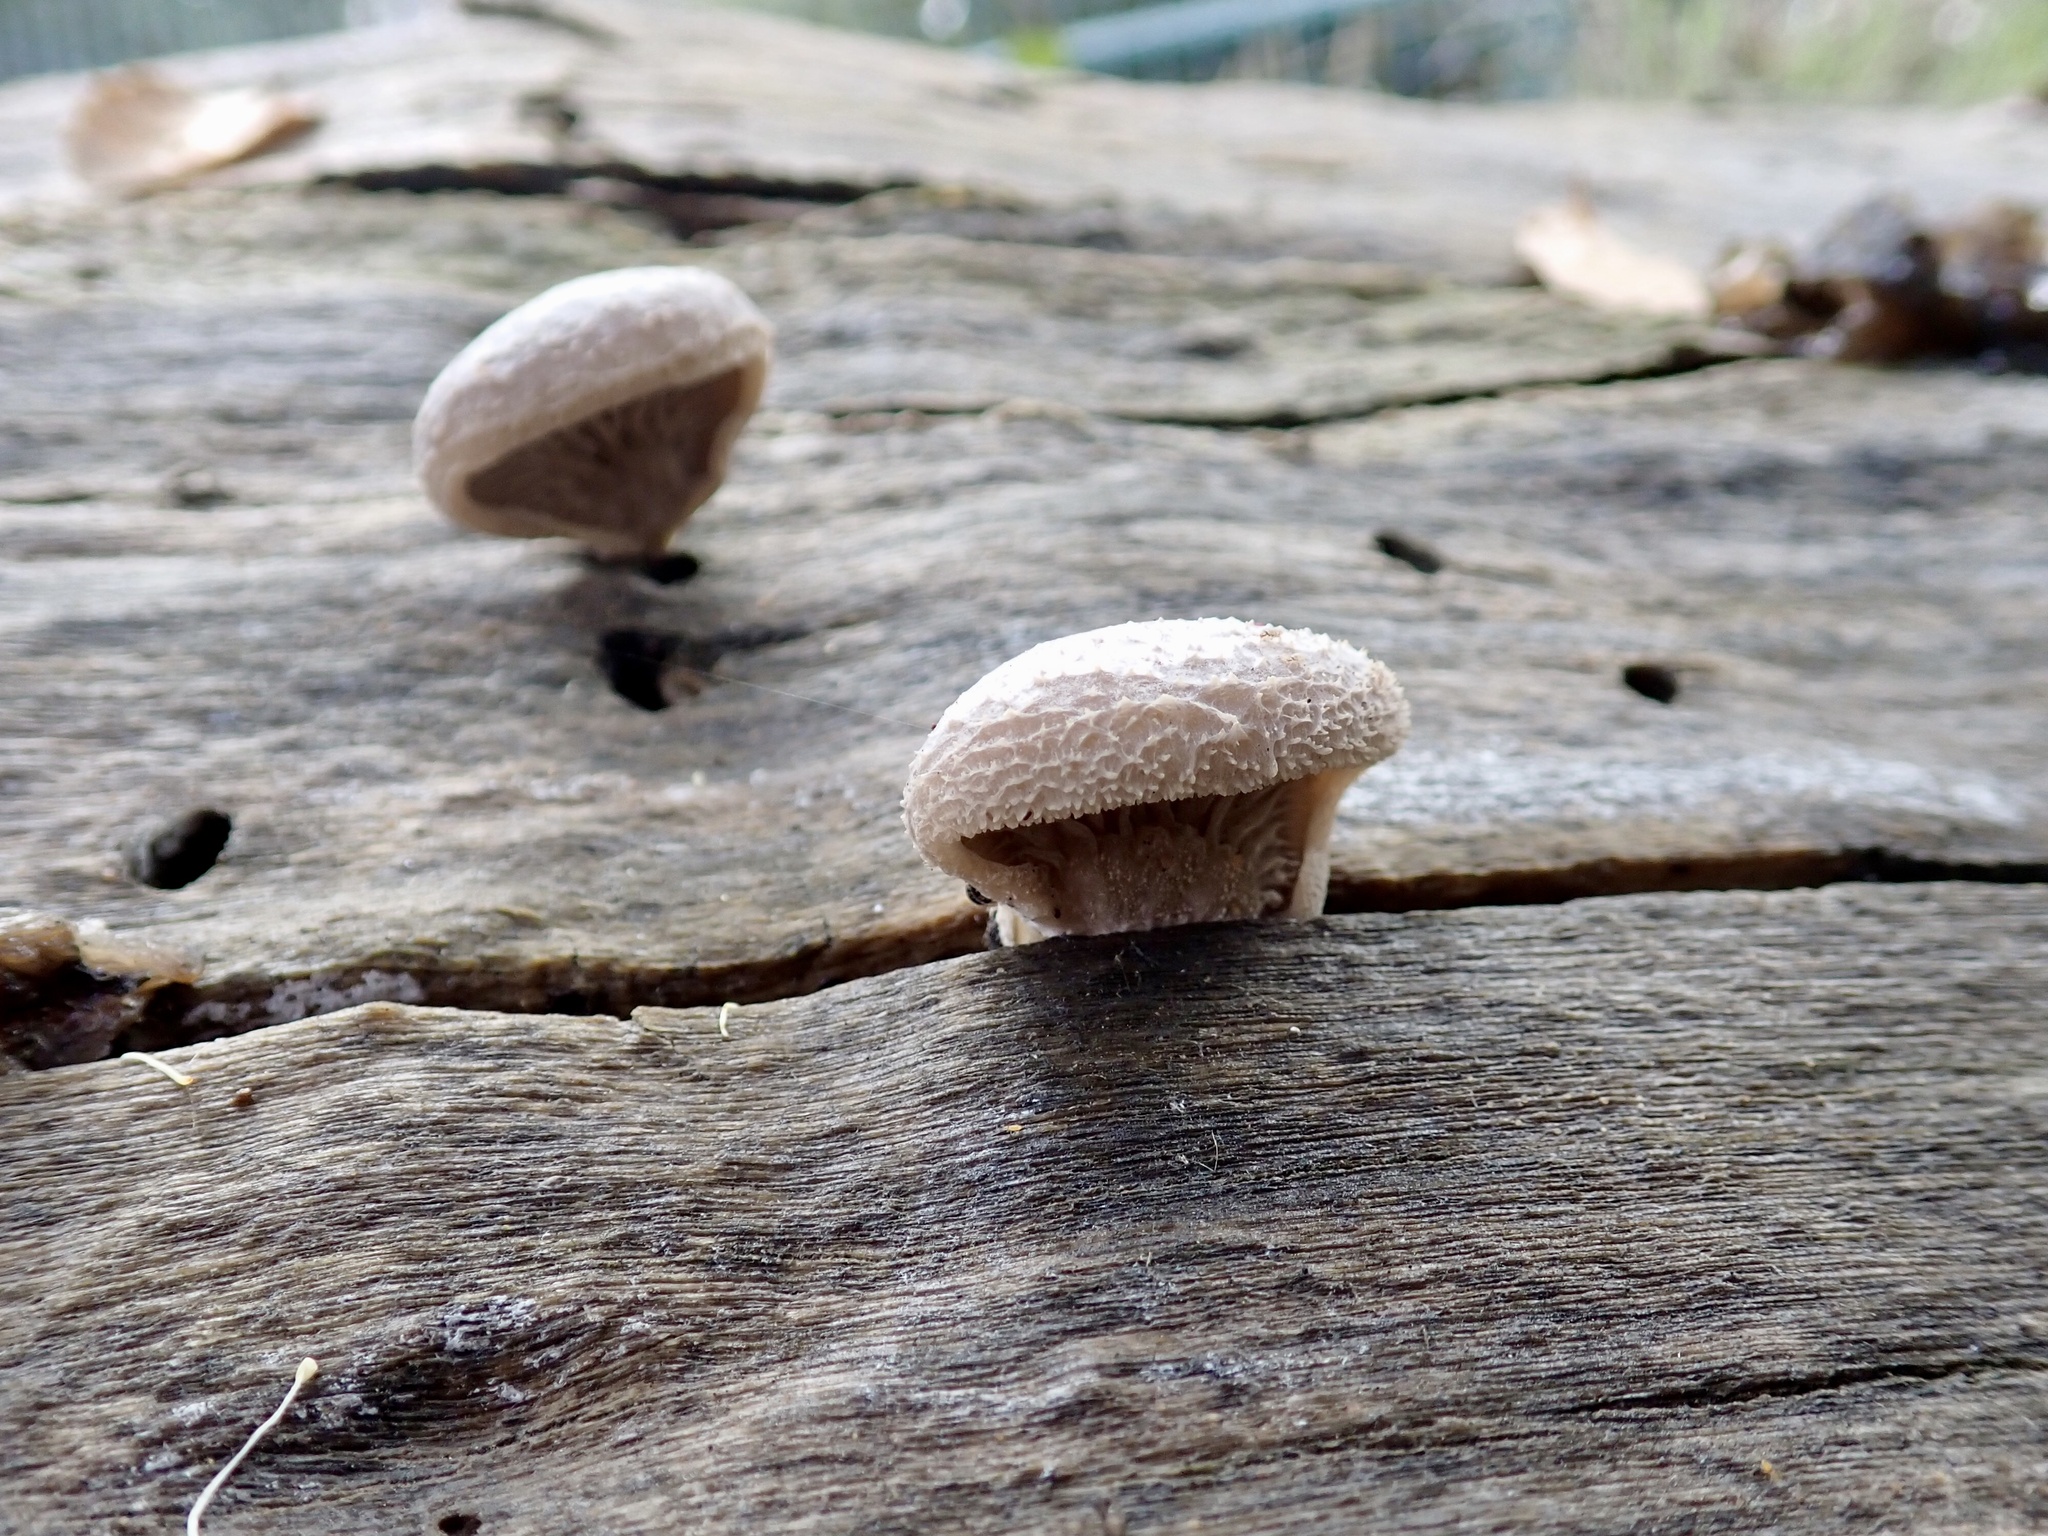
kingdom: Fungi
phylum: Basidiomycota
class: Agaricomycetes
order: Agaricales
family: Pleurotaceae
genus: Hohenbuehelia
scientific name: Hohenbuehelia mastrucata
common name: Woolly oyster
